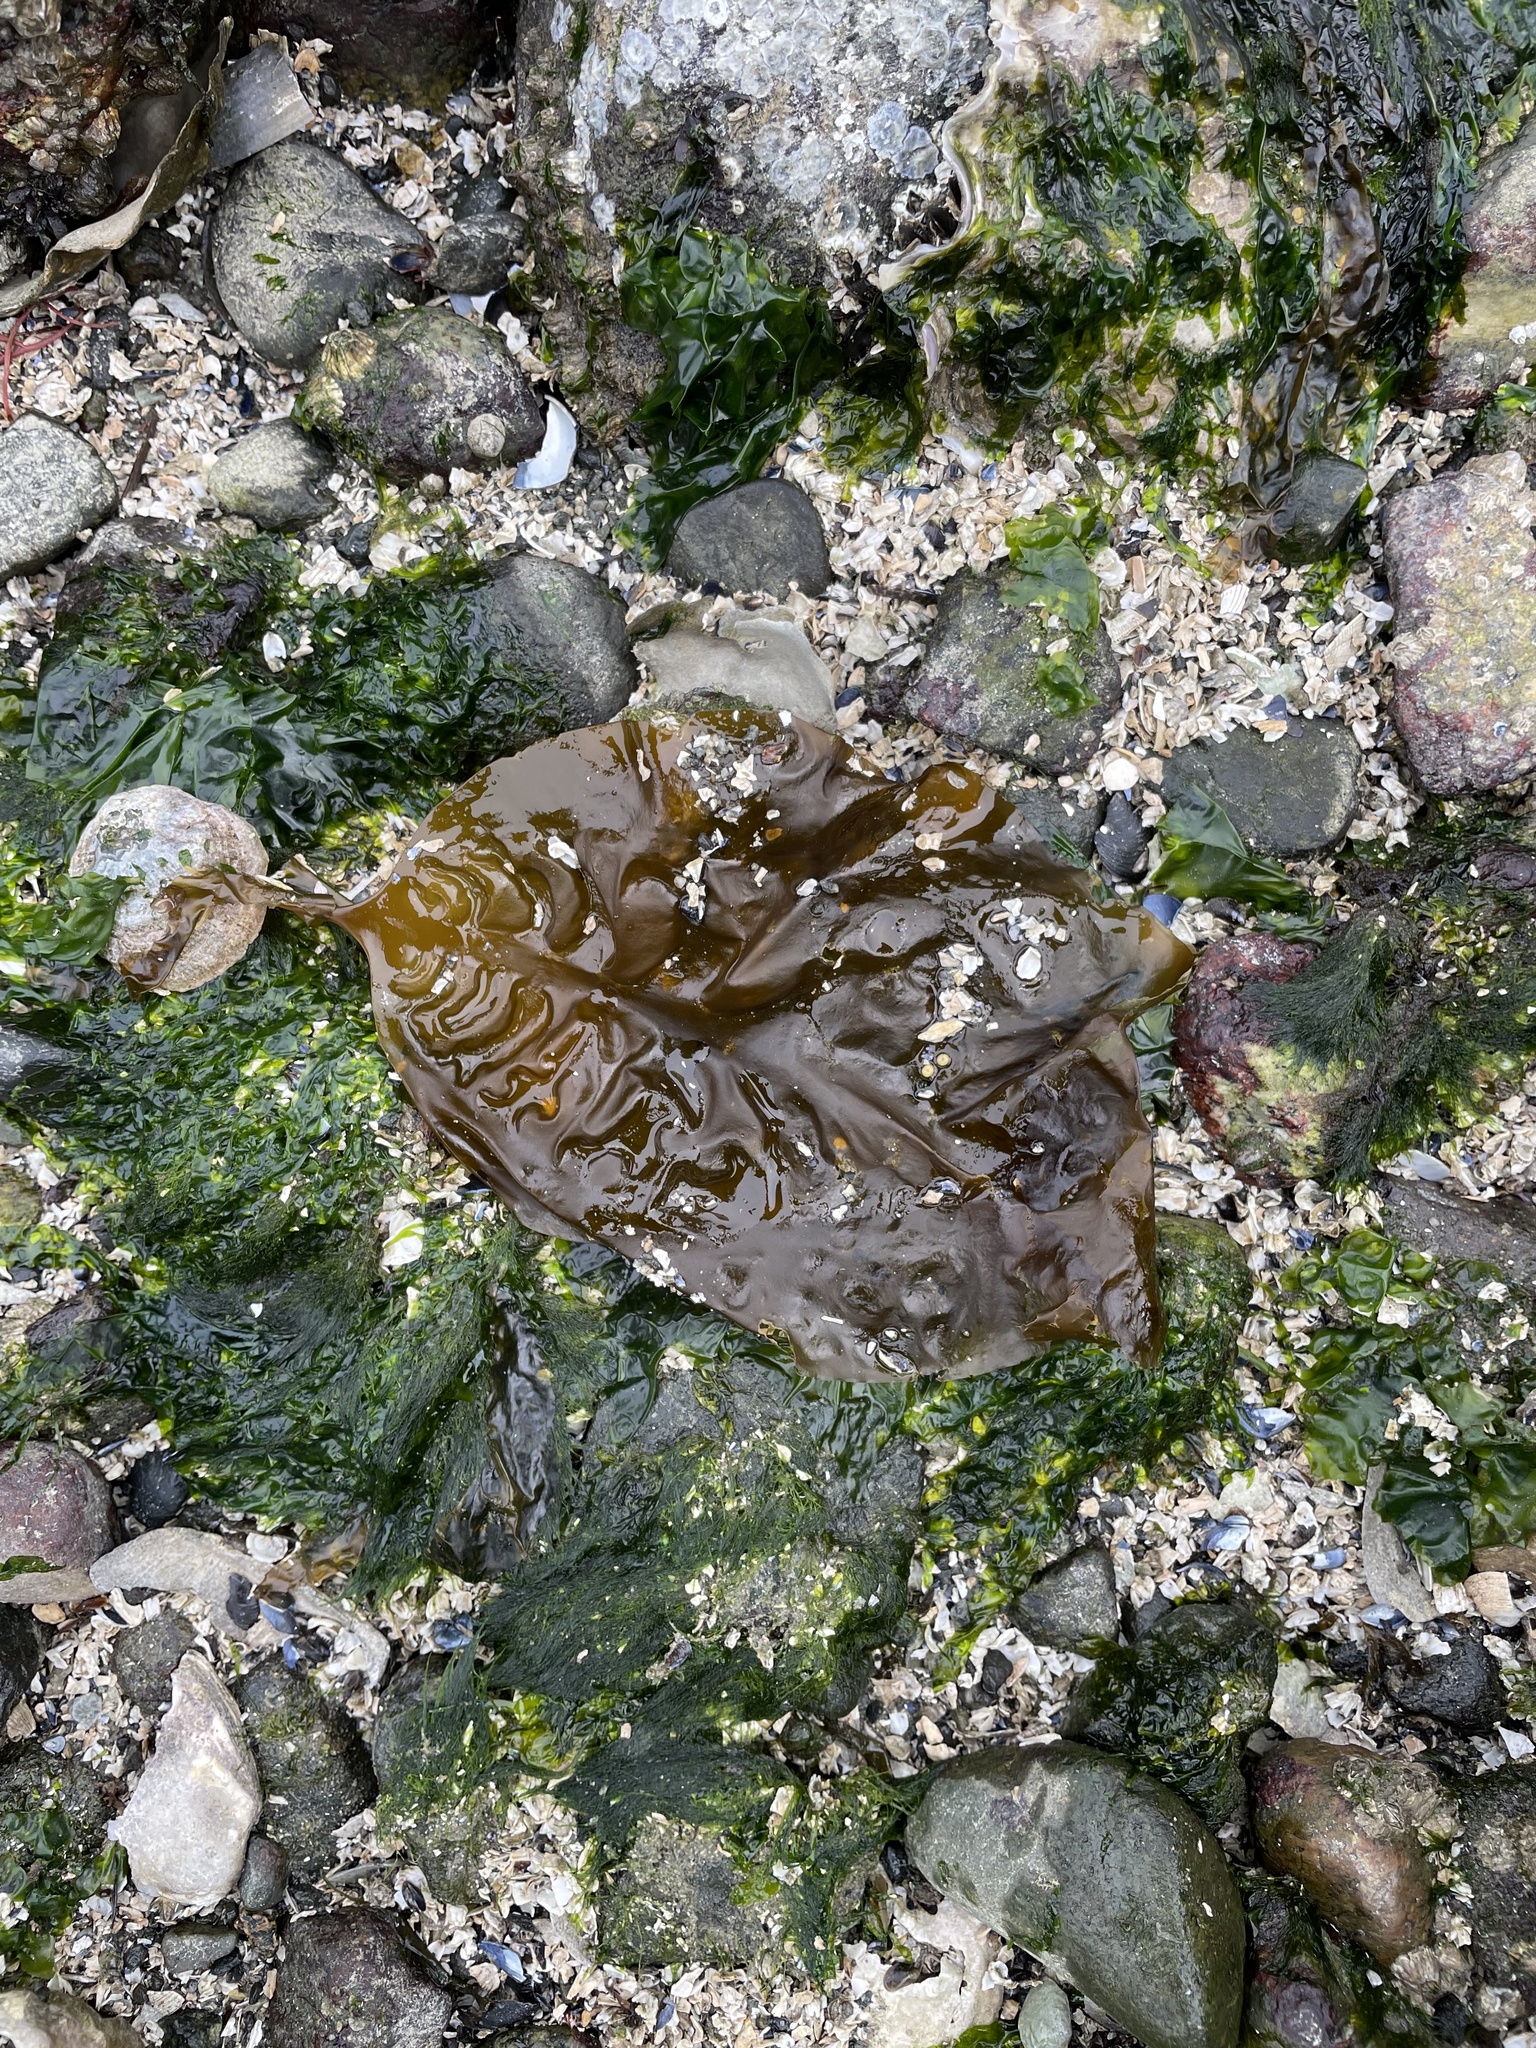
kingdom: Chromista
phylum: Ochrophyta
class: Phaeophyceae
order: Laminariales
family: Laminariaceae
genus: Saccharina
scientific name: Saccharina latissima
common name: Poor man's weather glass
